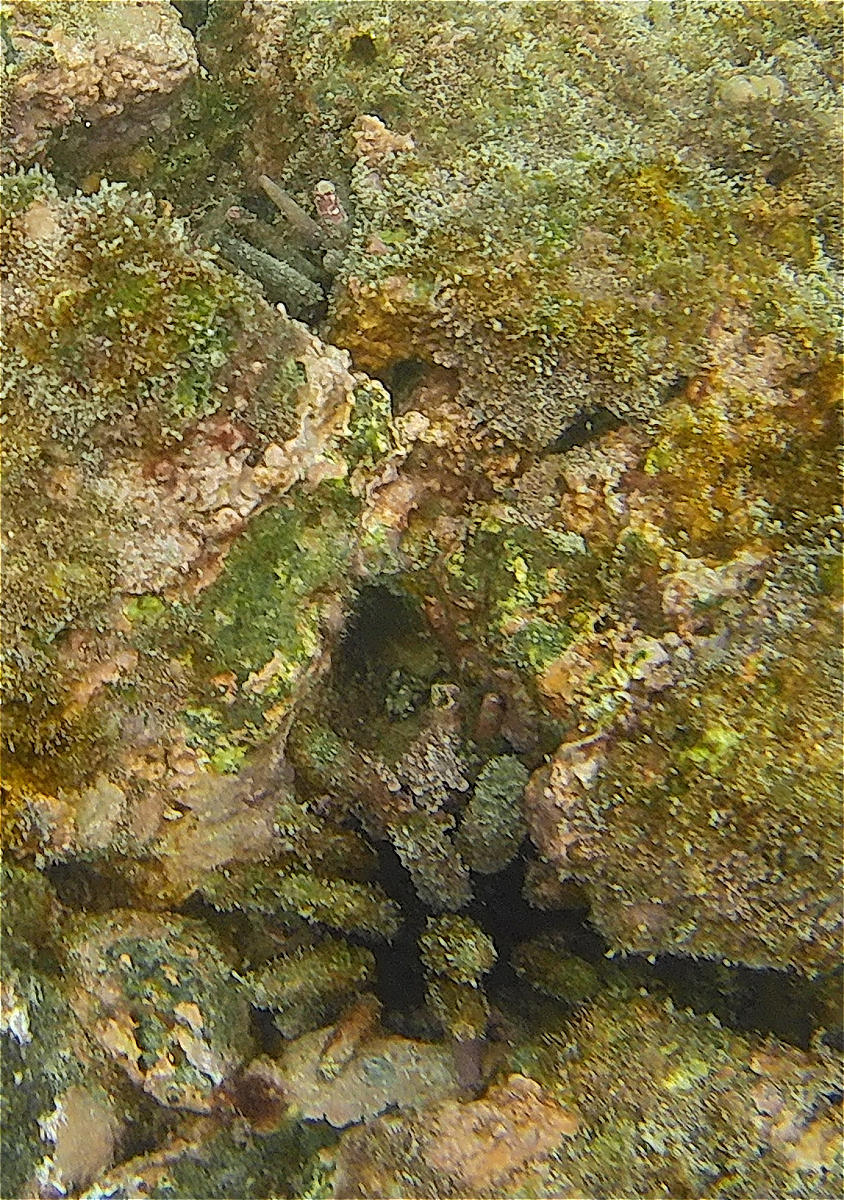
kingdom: Animalia
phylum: Echinodermata
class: Echinoidea
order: Cidaroida
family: Cidaridae
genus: Eucidaris
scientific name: Eucidaris galapagensis
